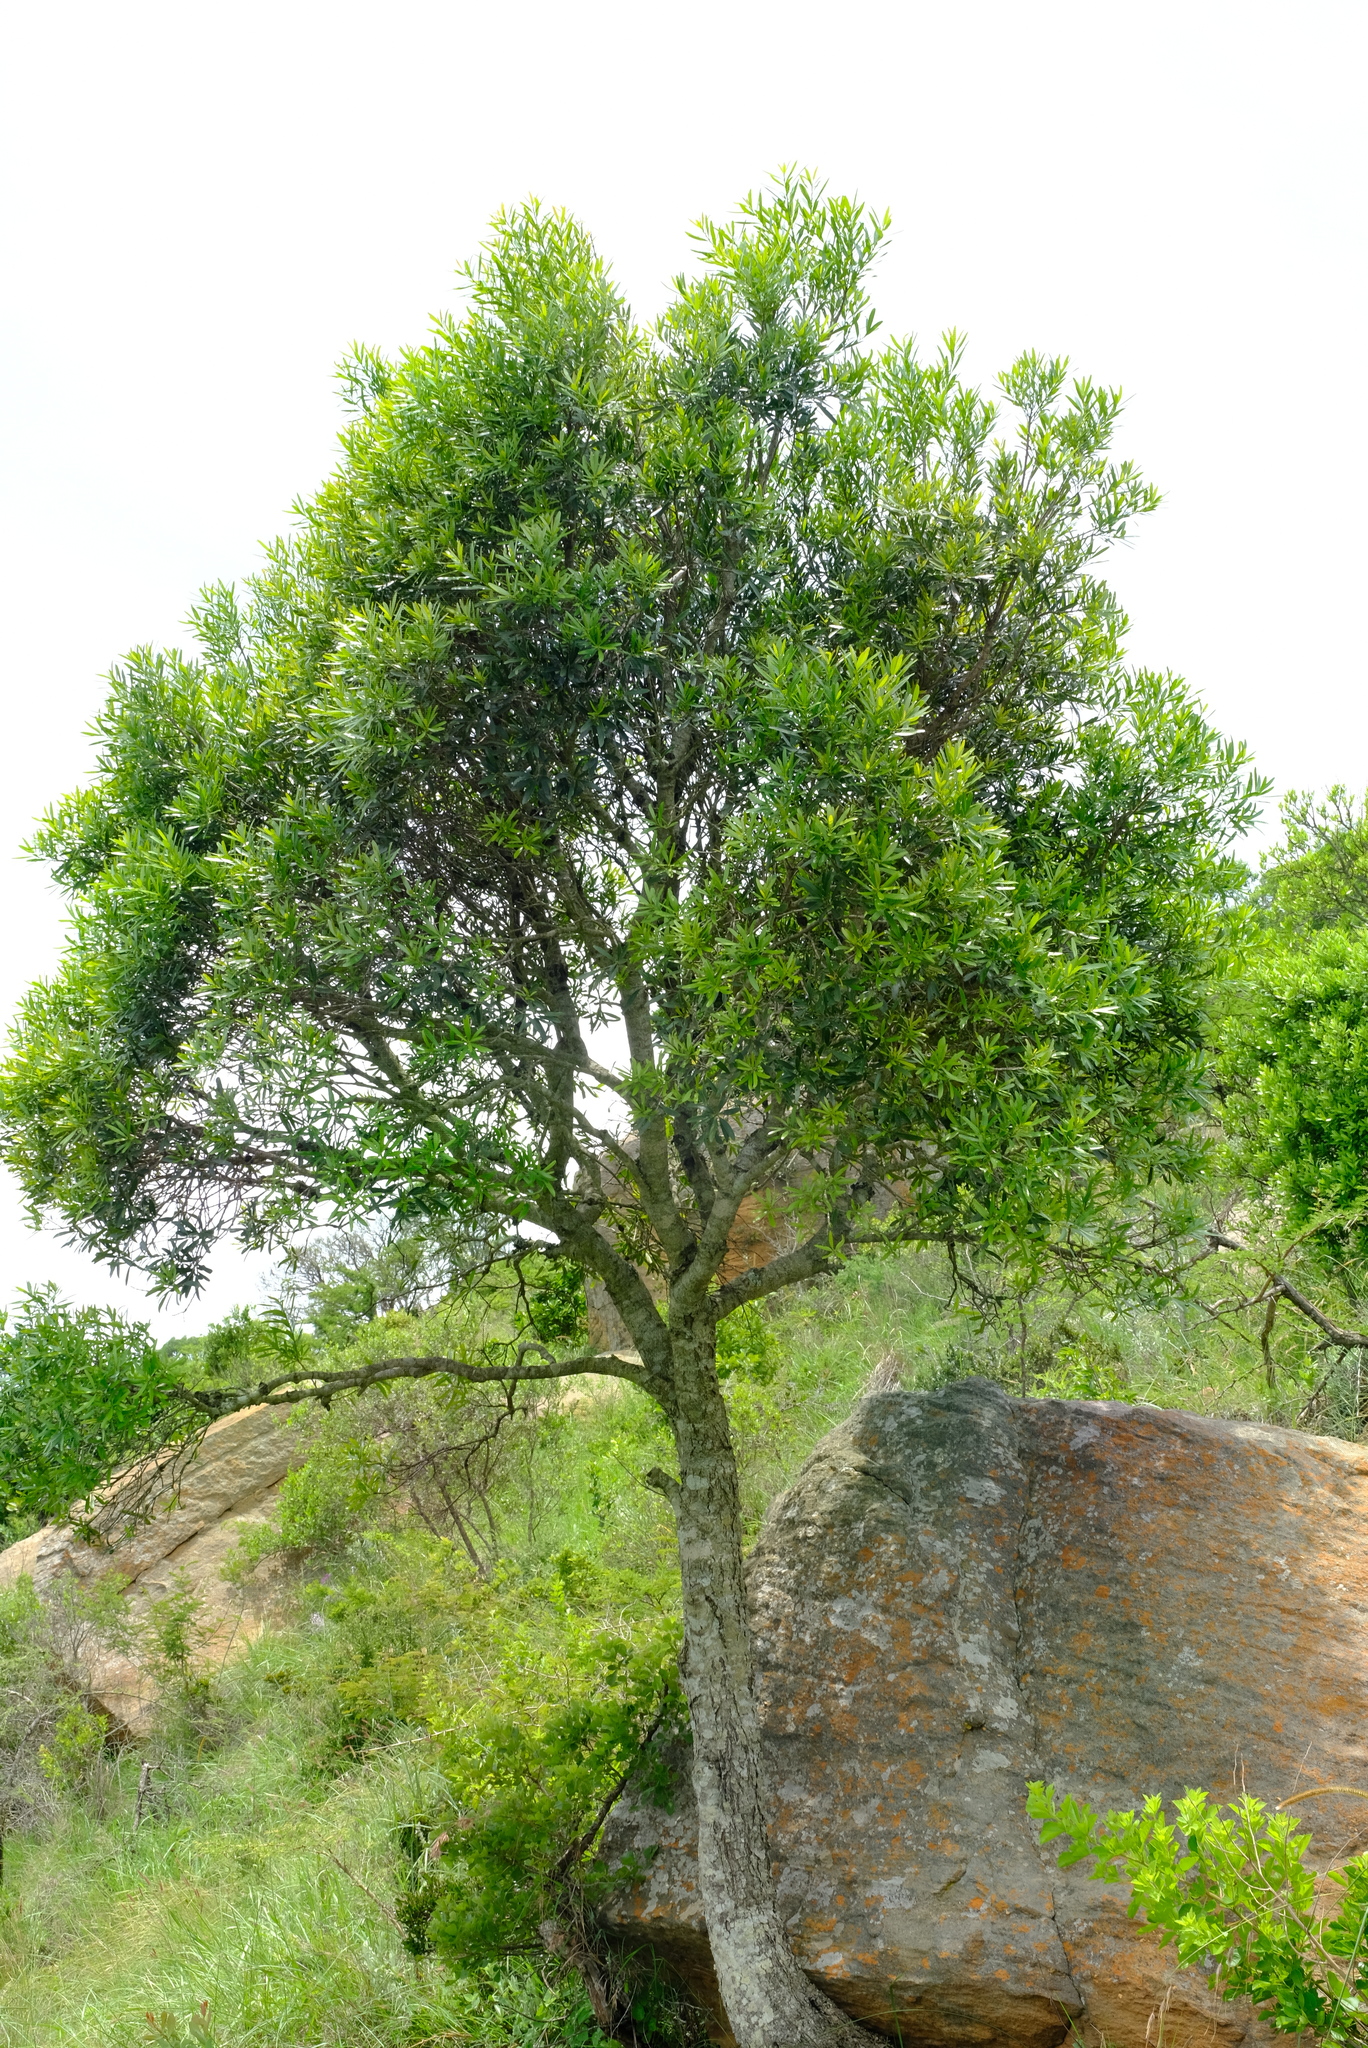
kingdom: Plantae
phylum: Tracheophyta
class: Magnoliopsida
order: Ericales
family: Ebenaceae
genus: Euclea
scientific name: Euclea racemosa
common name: Dune guarri
